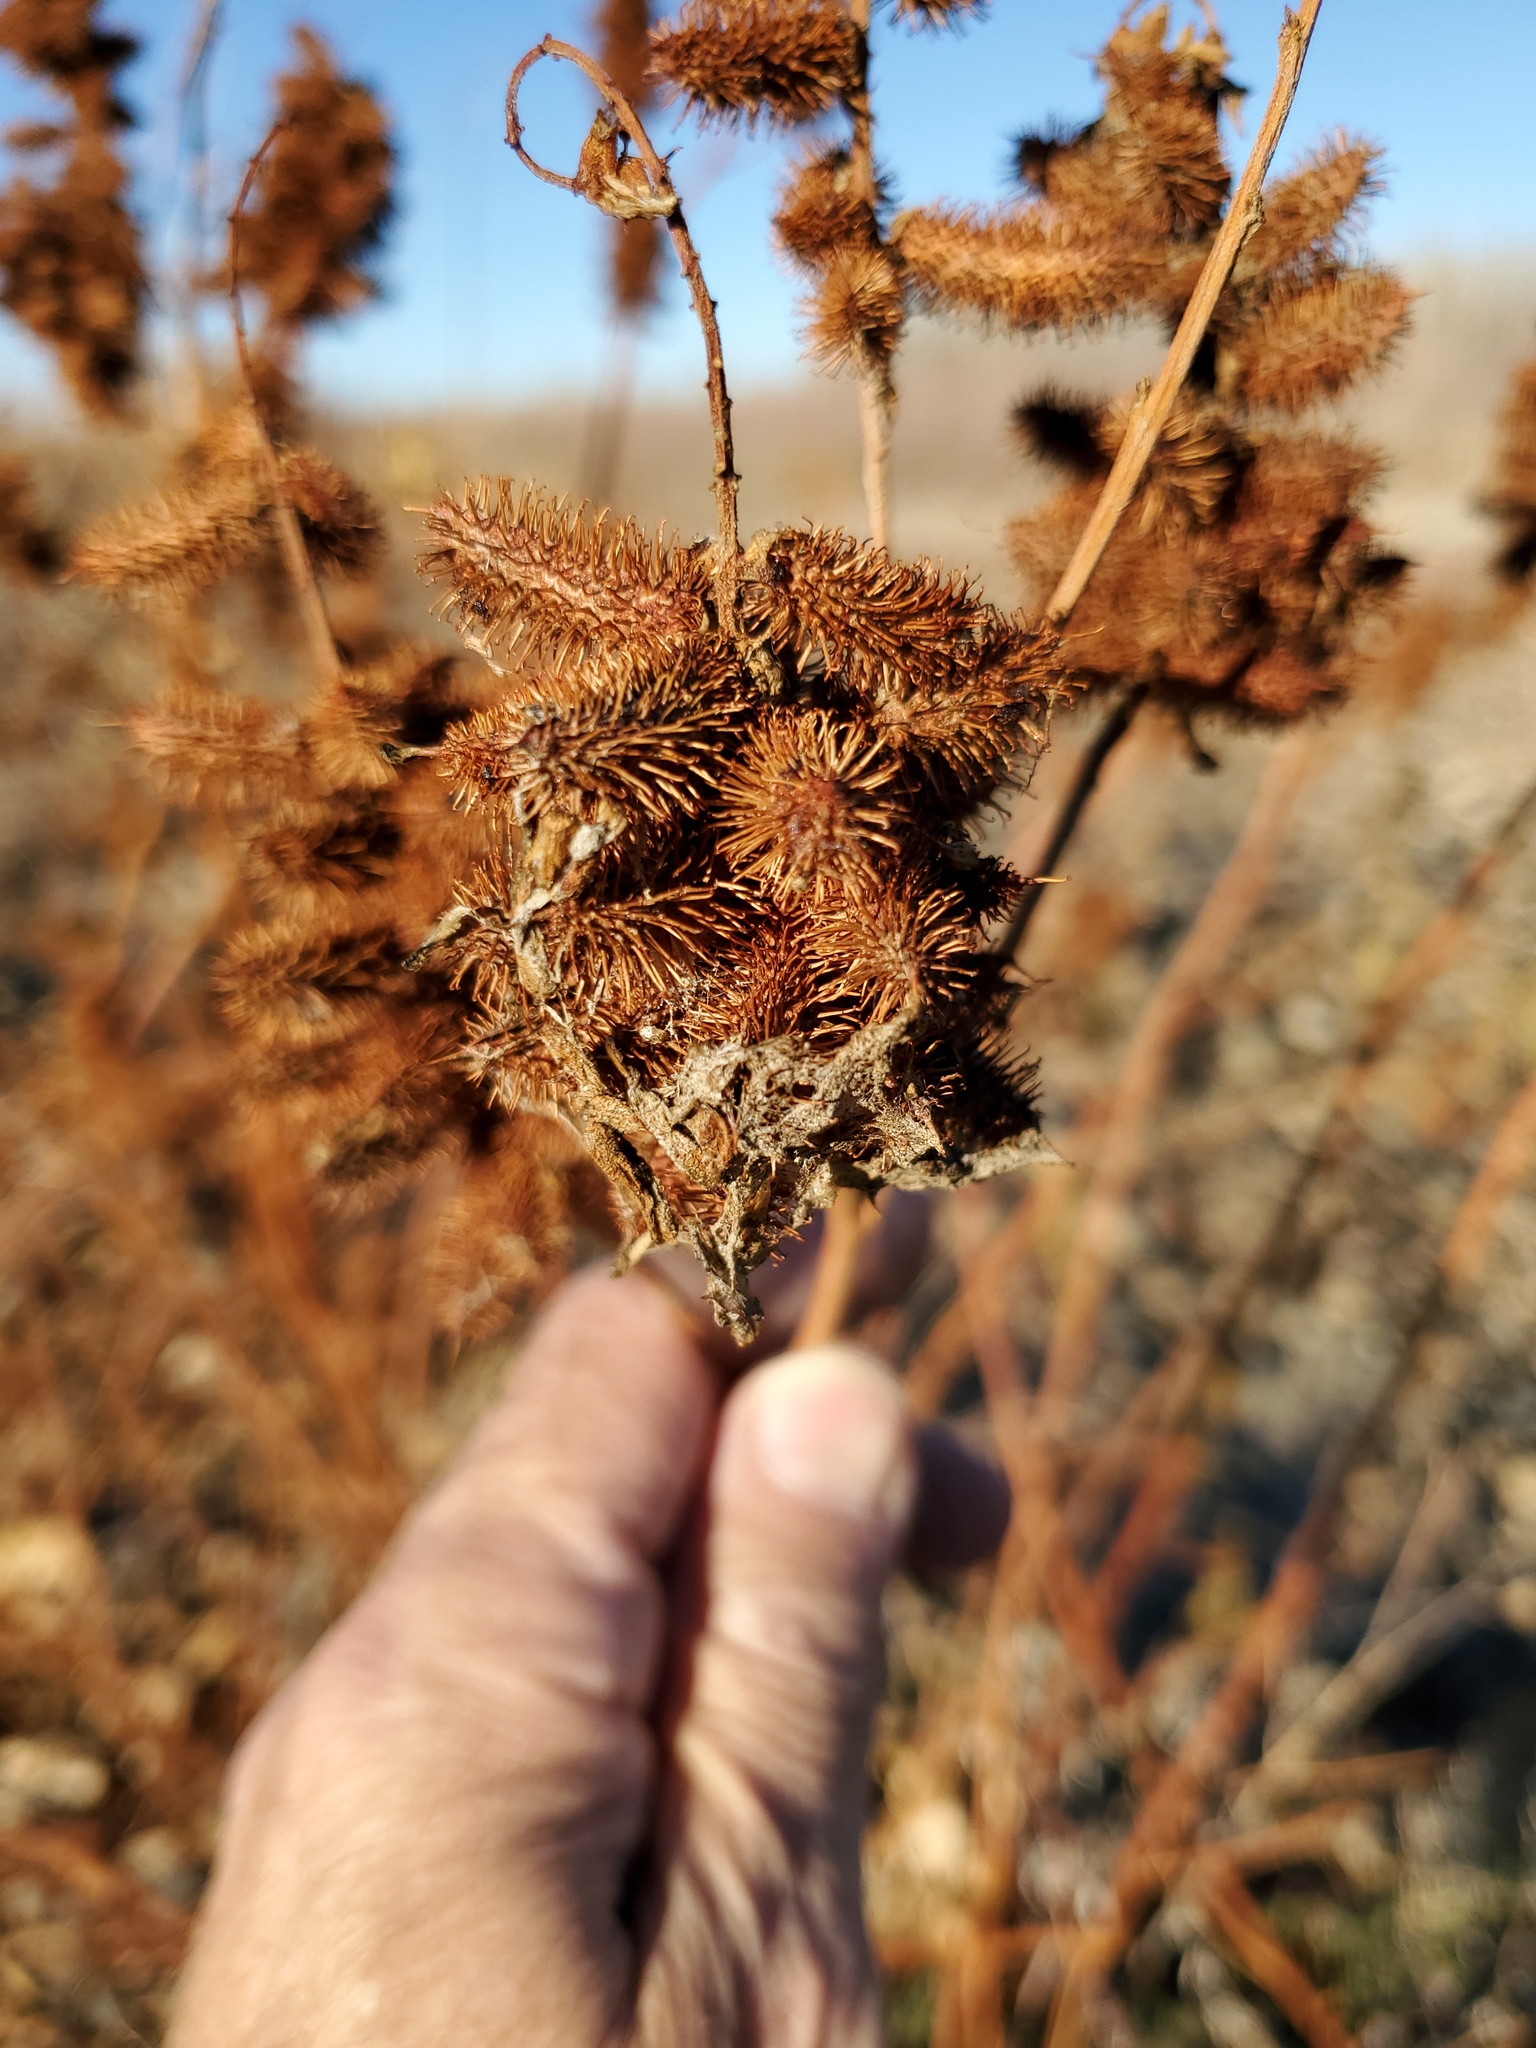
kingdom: Plantae
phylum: Tracheophyta
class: Magnoliopsida
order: Fabales
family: Fabaceae
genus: Glycyrrhiza
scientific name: Glycyrrhiza lepidota
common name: American liquorice
